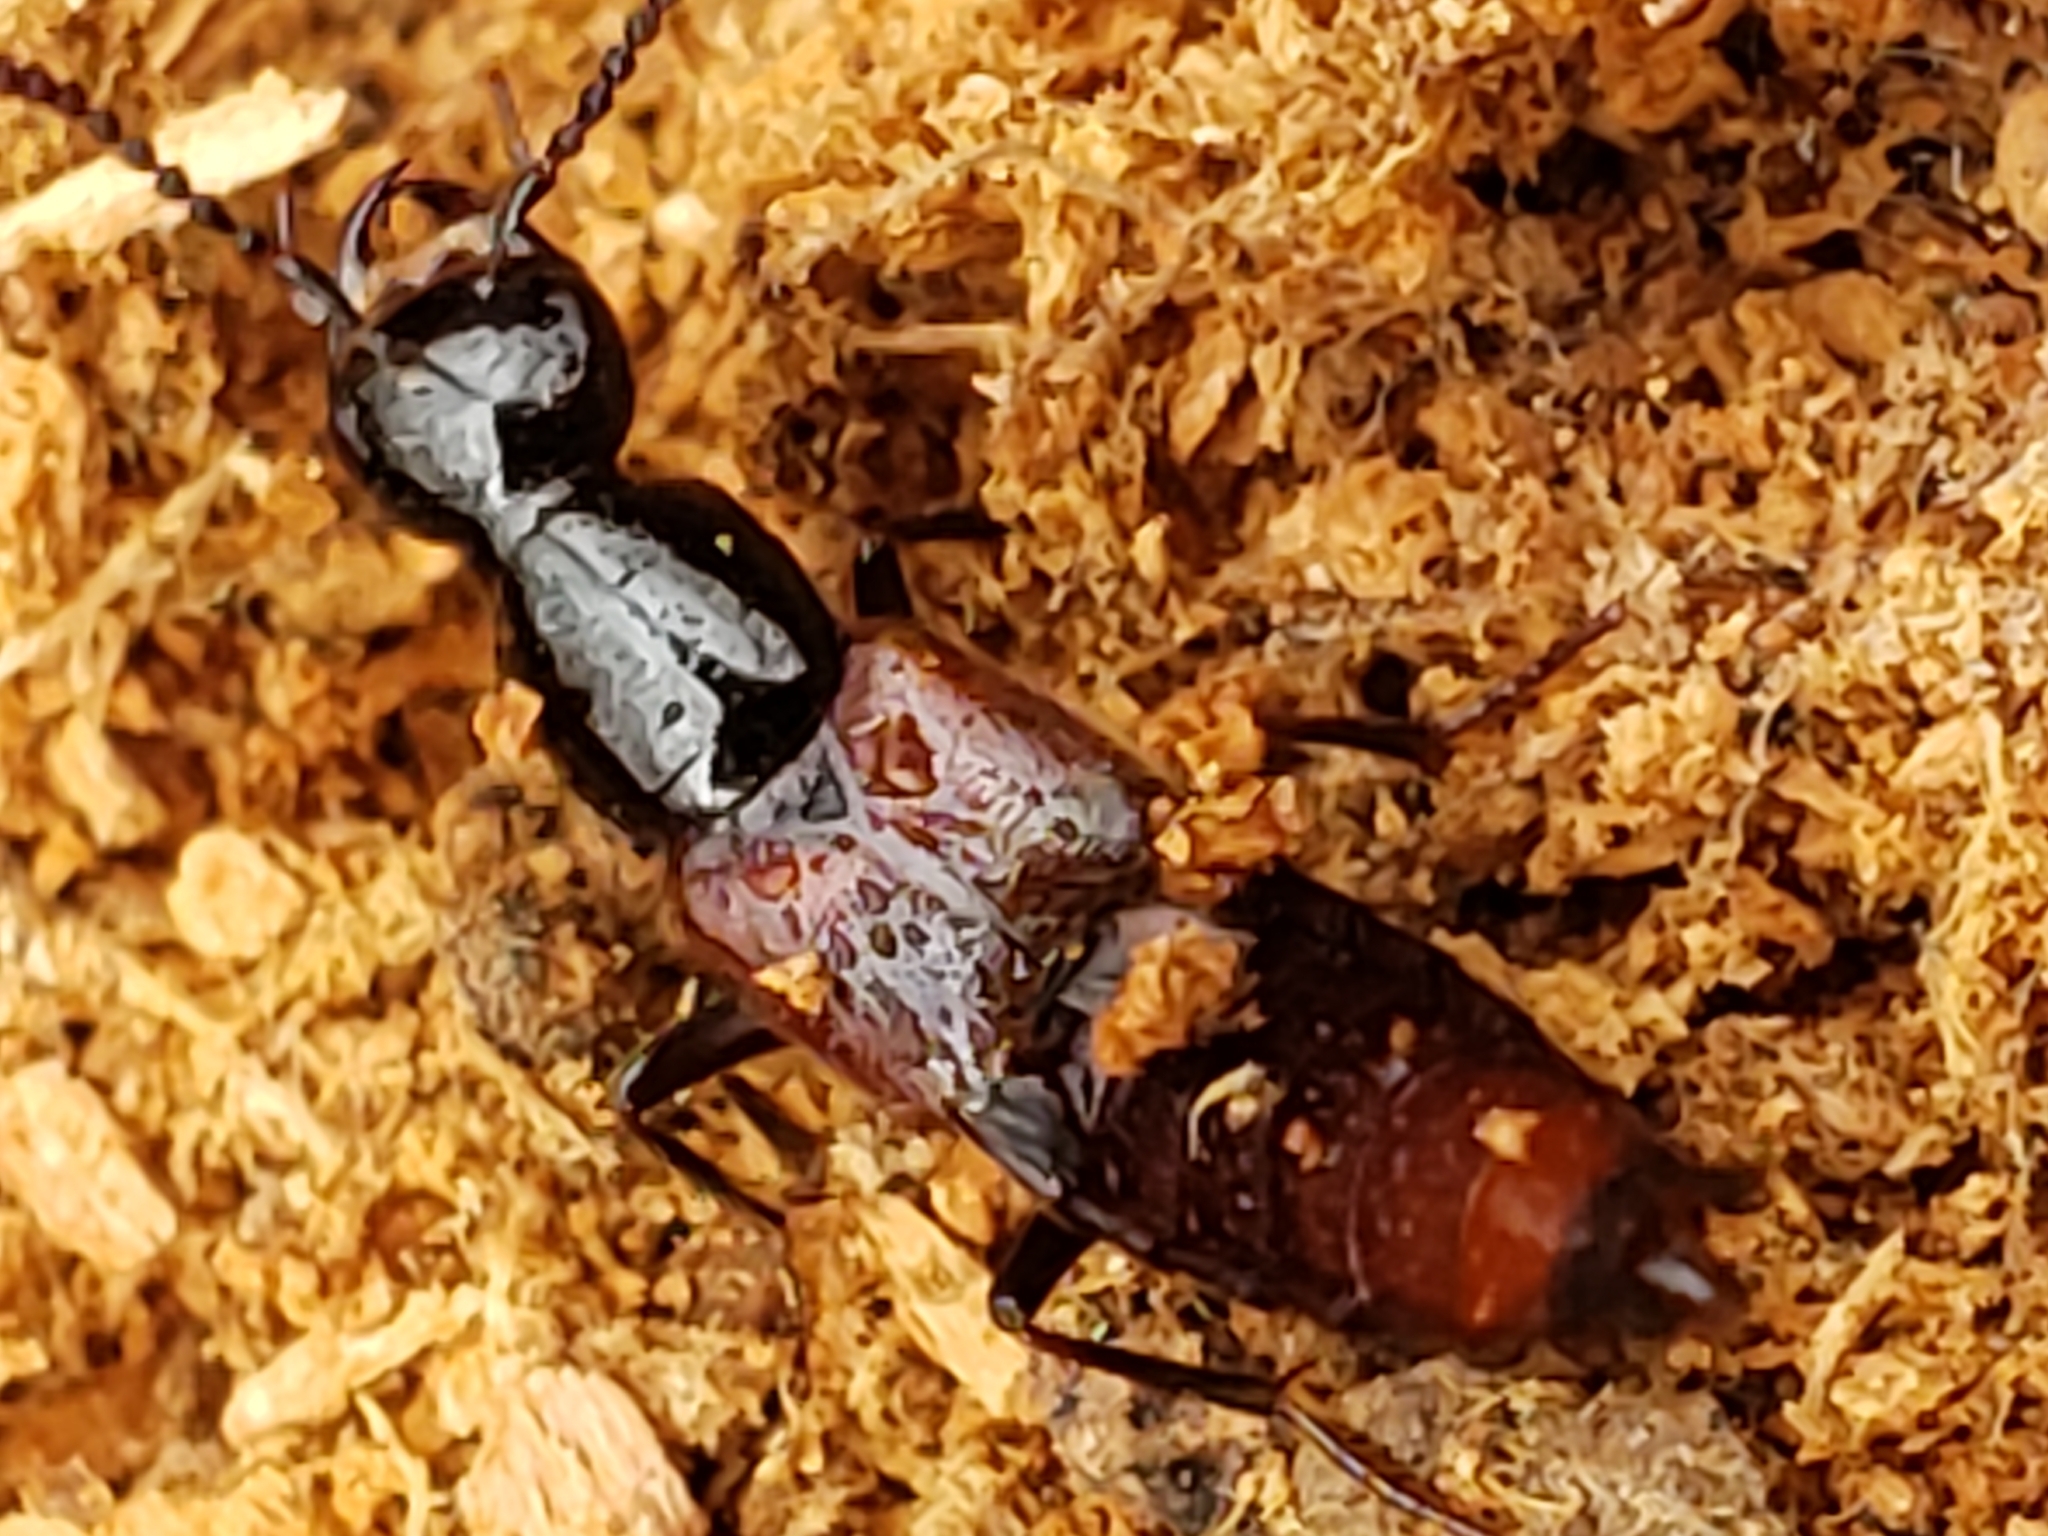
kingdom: Animalia
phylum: Arthropoda
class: Insecta
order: Coleoptera
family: Staphylinidae
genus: Hesperus
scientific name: Hesperus baltimorensis
